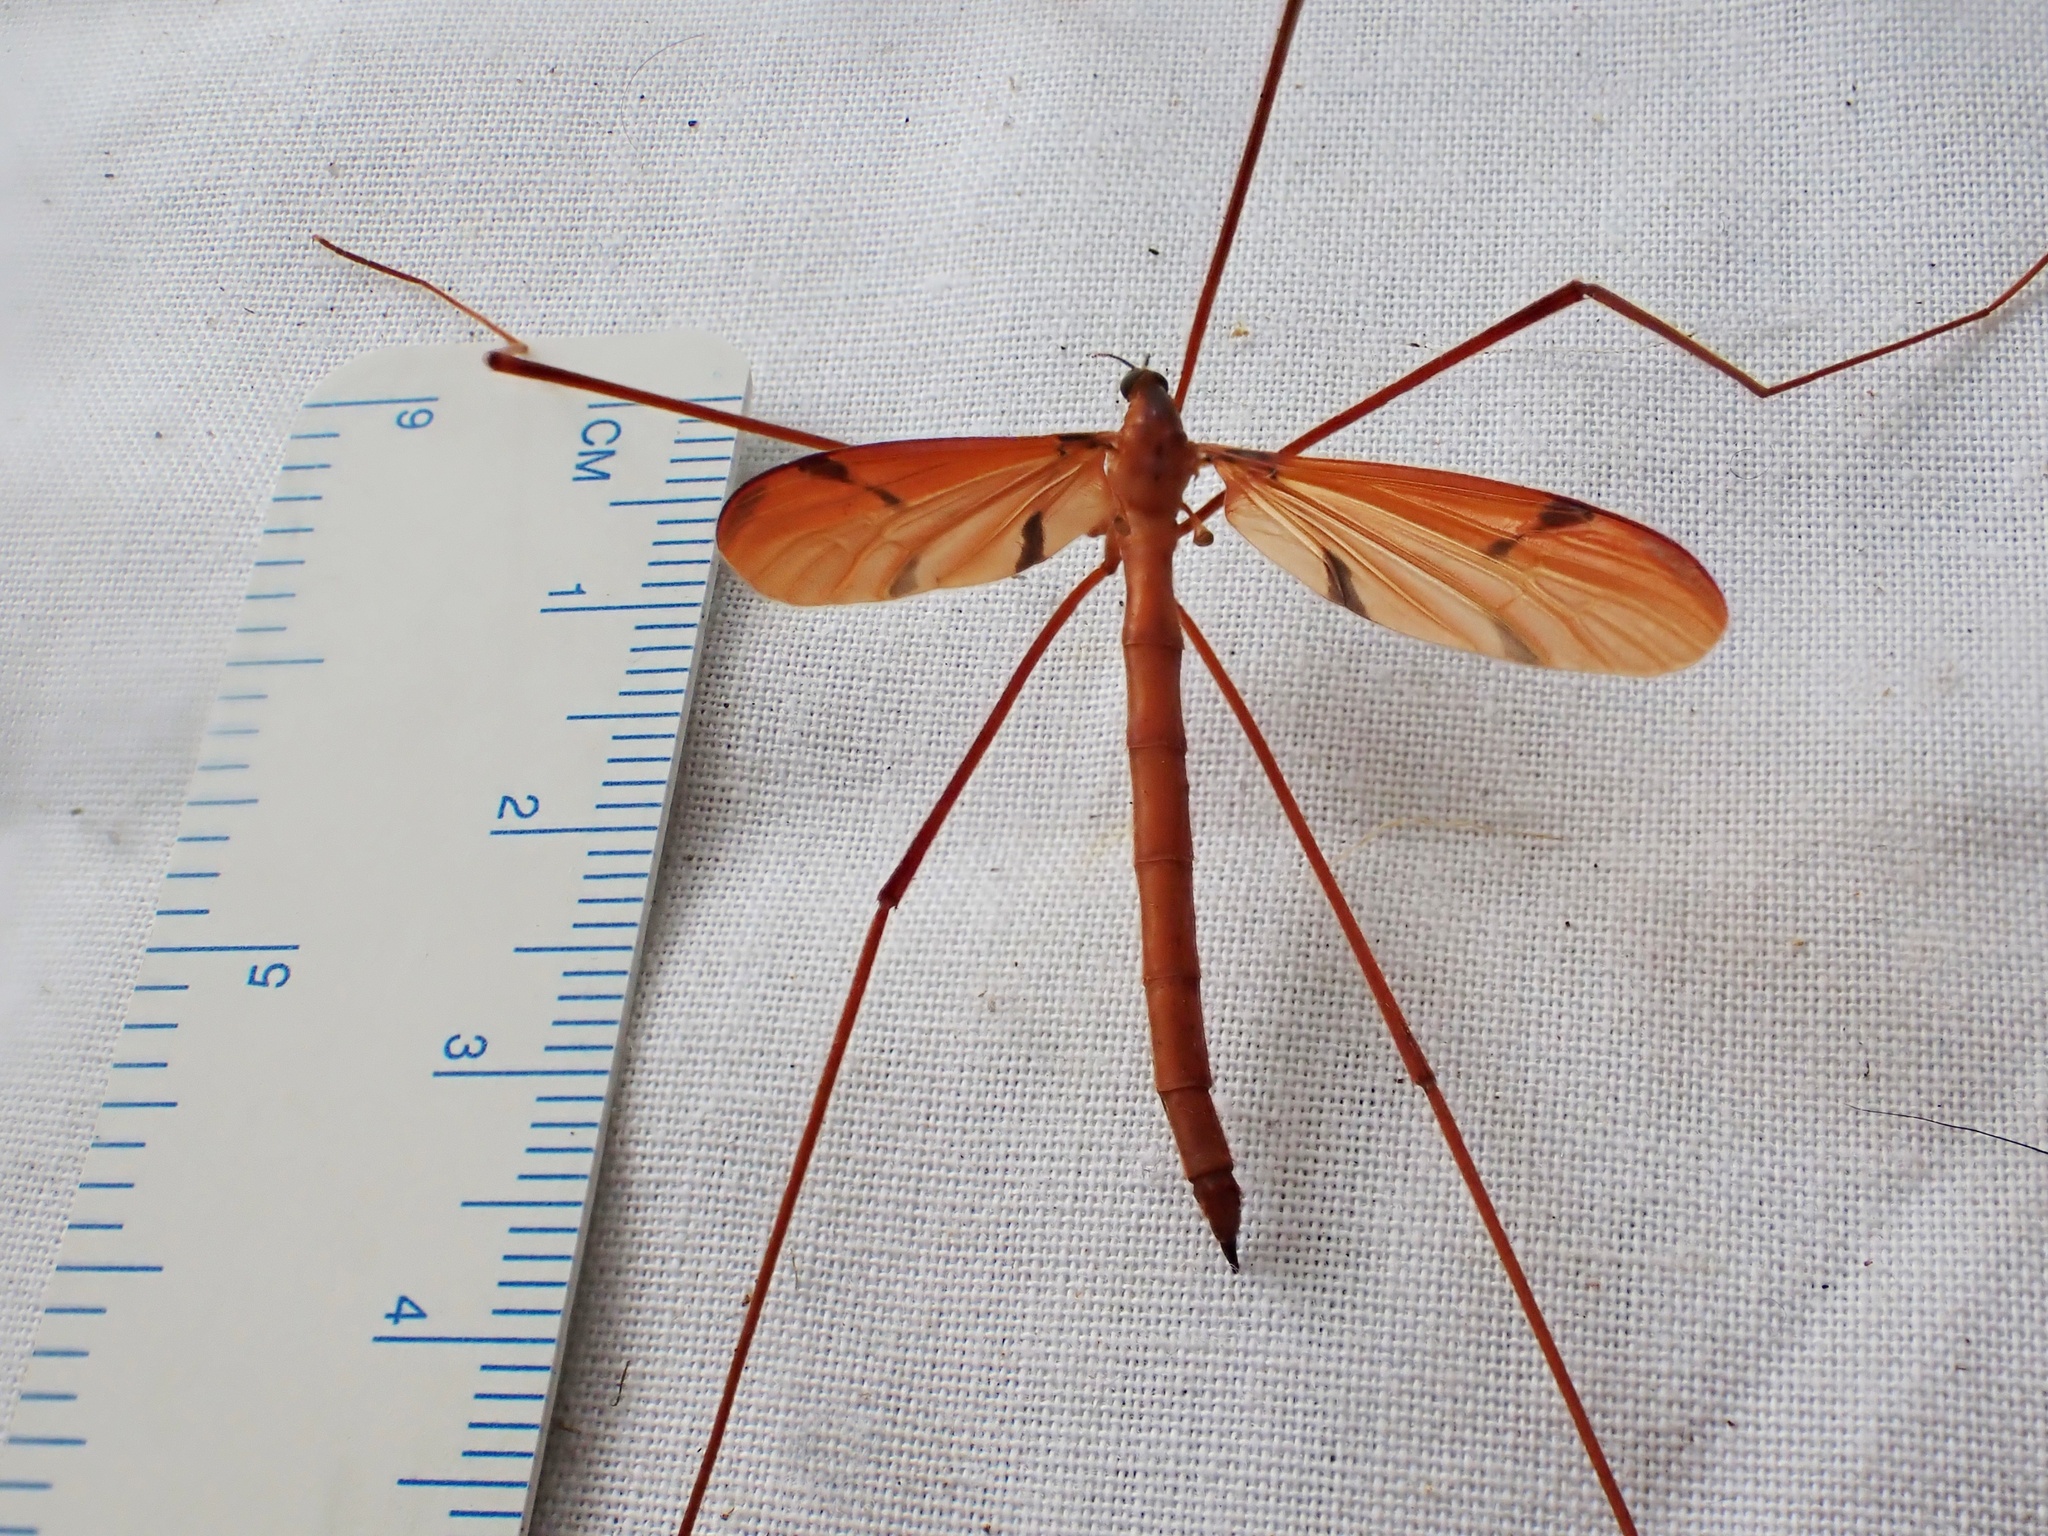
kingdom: Animalia
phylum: Arthropoda
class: Insecta
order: Diptera
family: Limoniidae
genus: Sigmatomera
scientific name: Sigmatomera rufa
